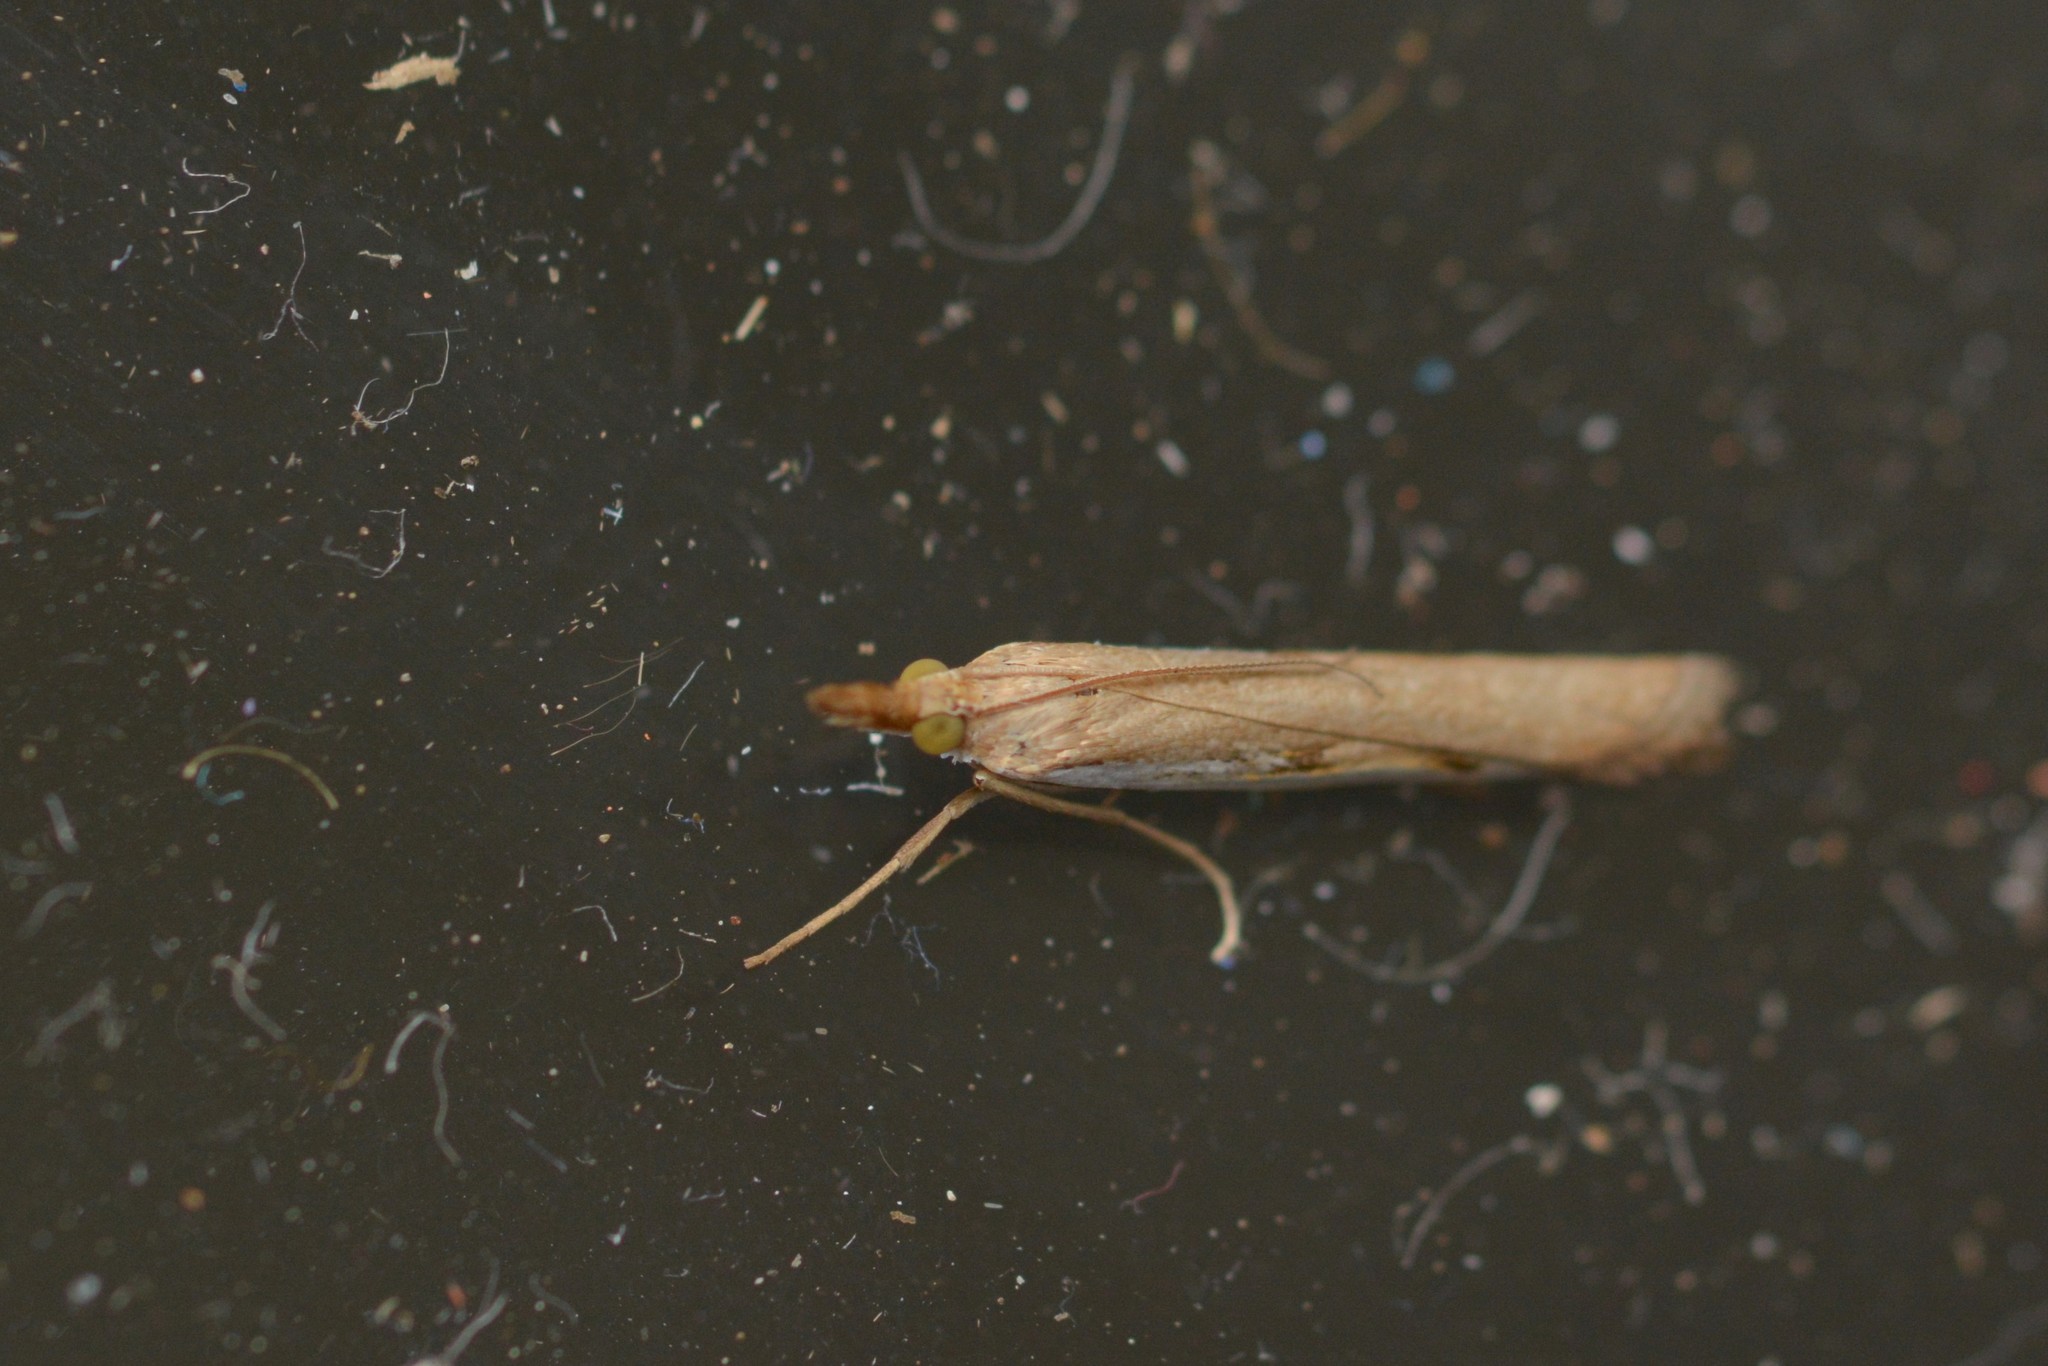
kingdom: Animalia
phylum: Arthropoda
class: Insecta
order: Lepidoptera
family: Crambidae
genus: Orocrambus
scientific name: Orocrambus flexuosellus
